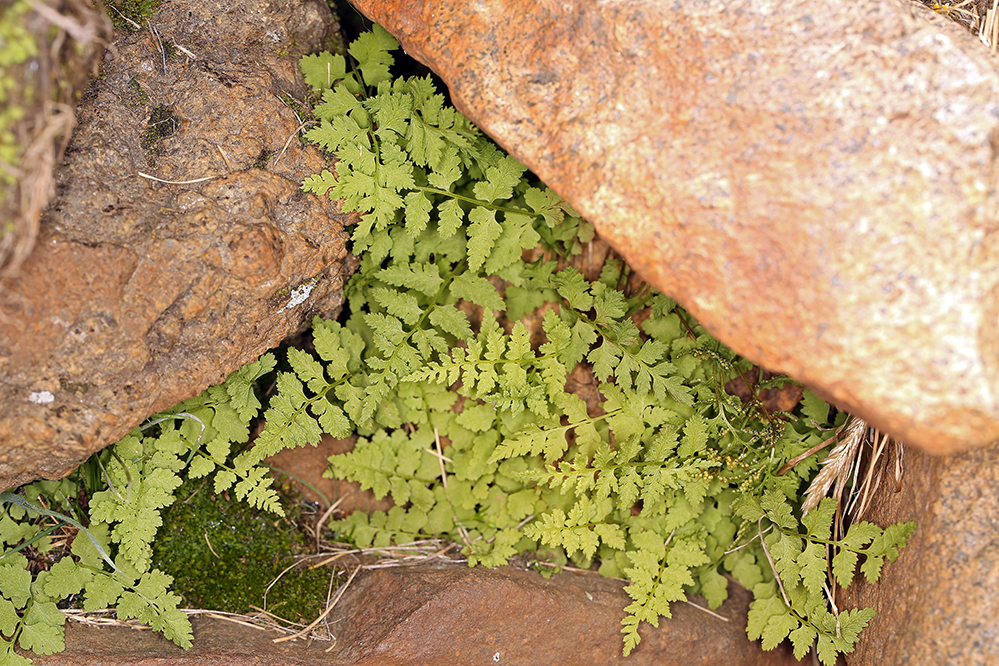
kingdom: Plantae
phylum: Tracheophyta
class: Polypodiopsida
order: Polypodiales
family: Cystopteridaceae
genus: Cystopteris
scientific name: Cystopteris fragilis
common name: Brittle bladder fern
